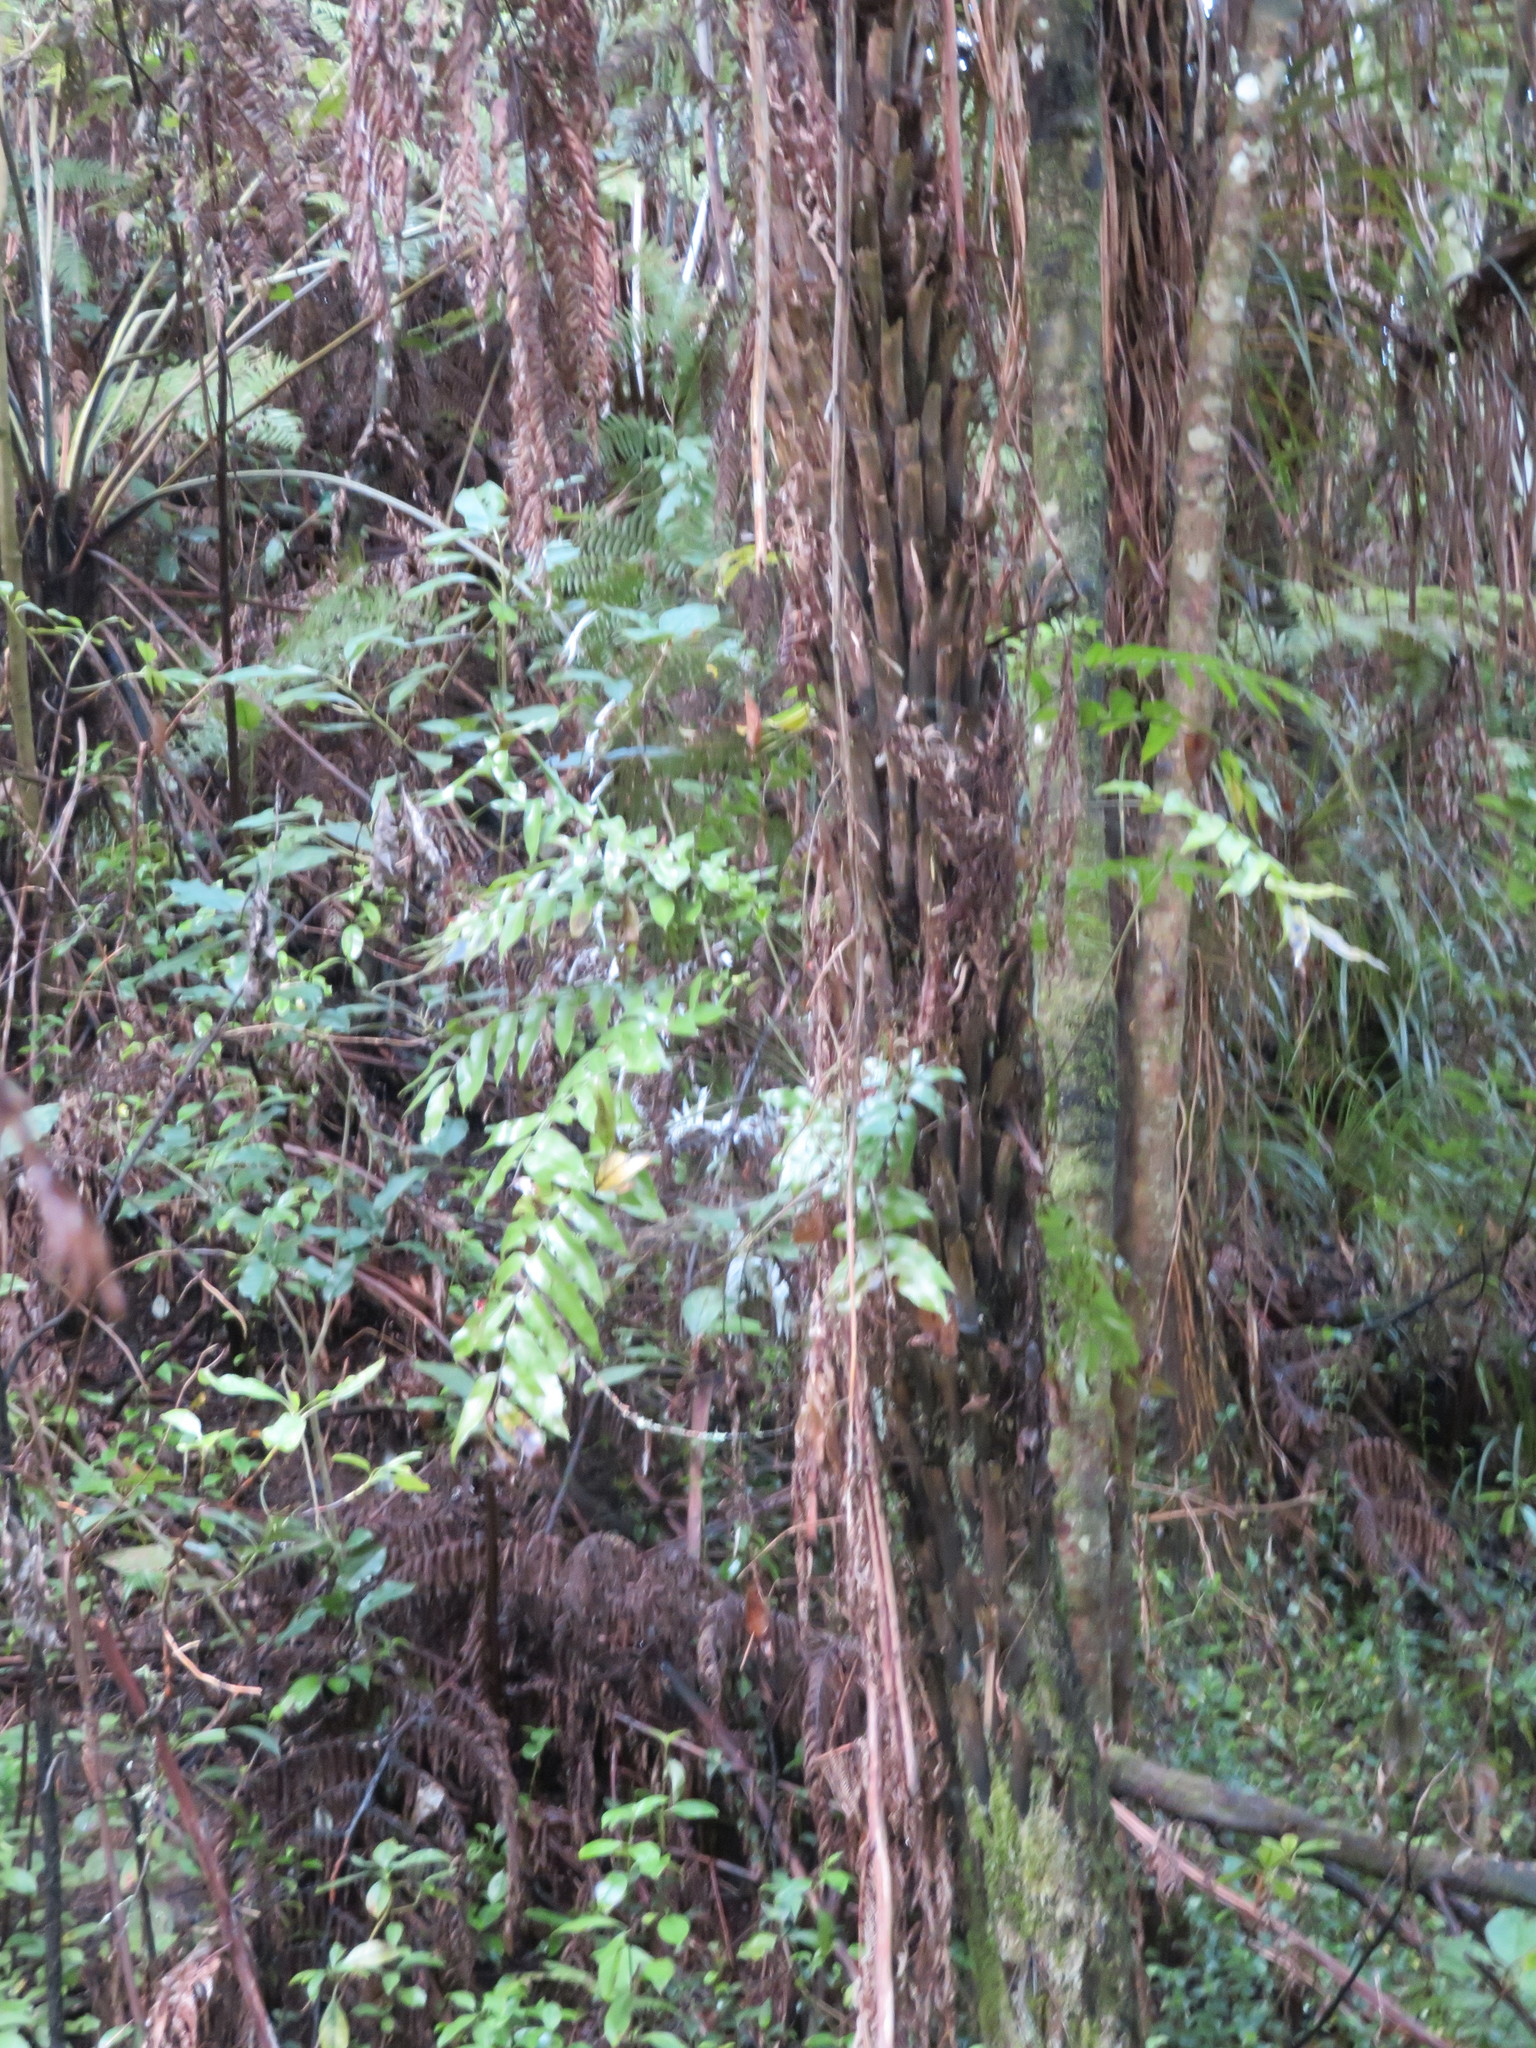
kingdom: Plantae
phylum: Tracheophyta
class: Polypodiopsida
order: Polypodiales
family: Aspleniaceae
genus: Asplenium
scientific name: Asplenium oblongifolium
